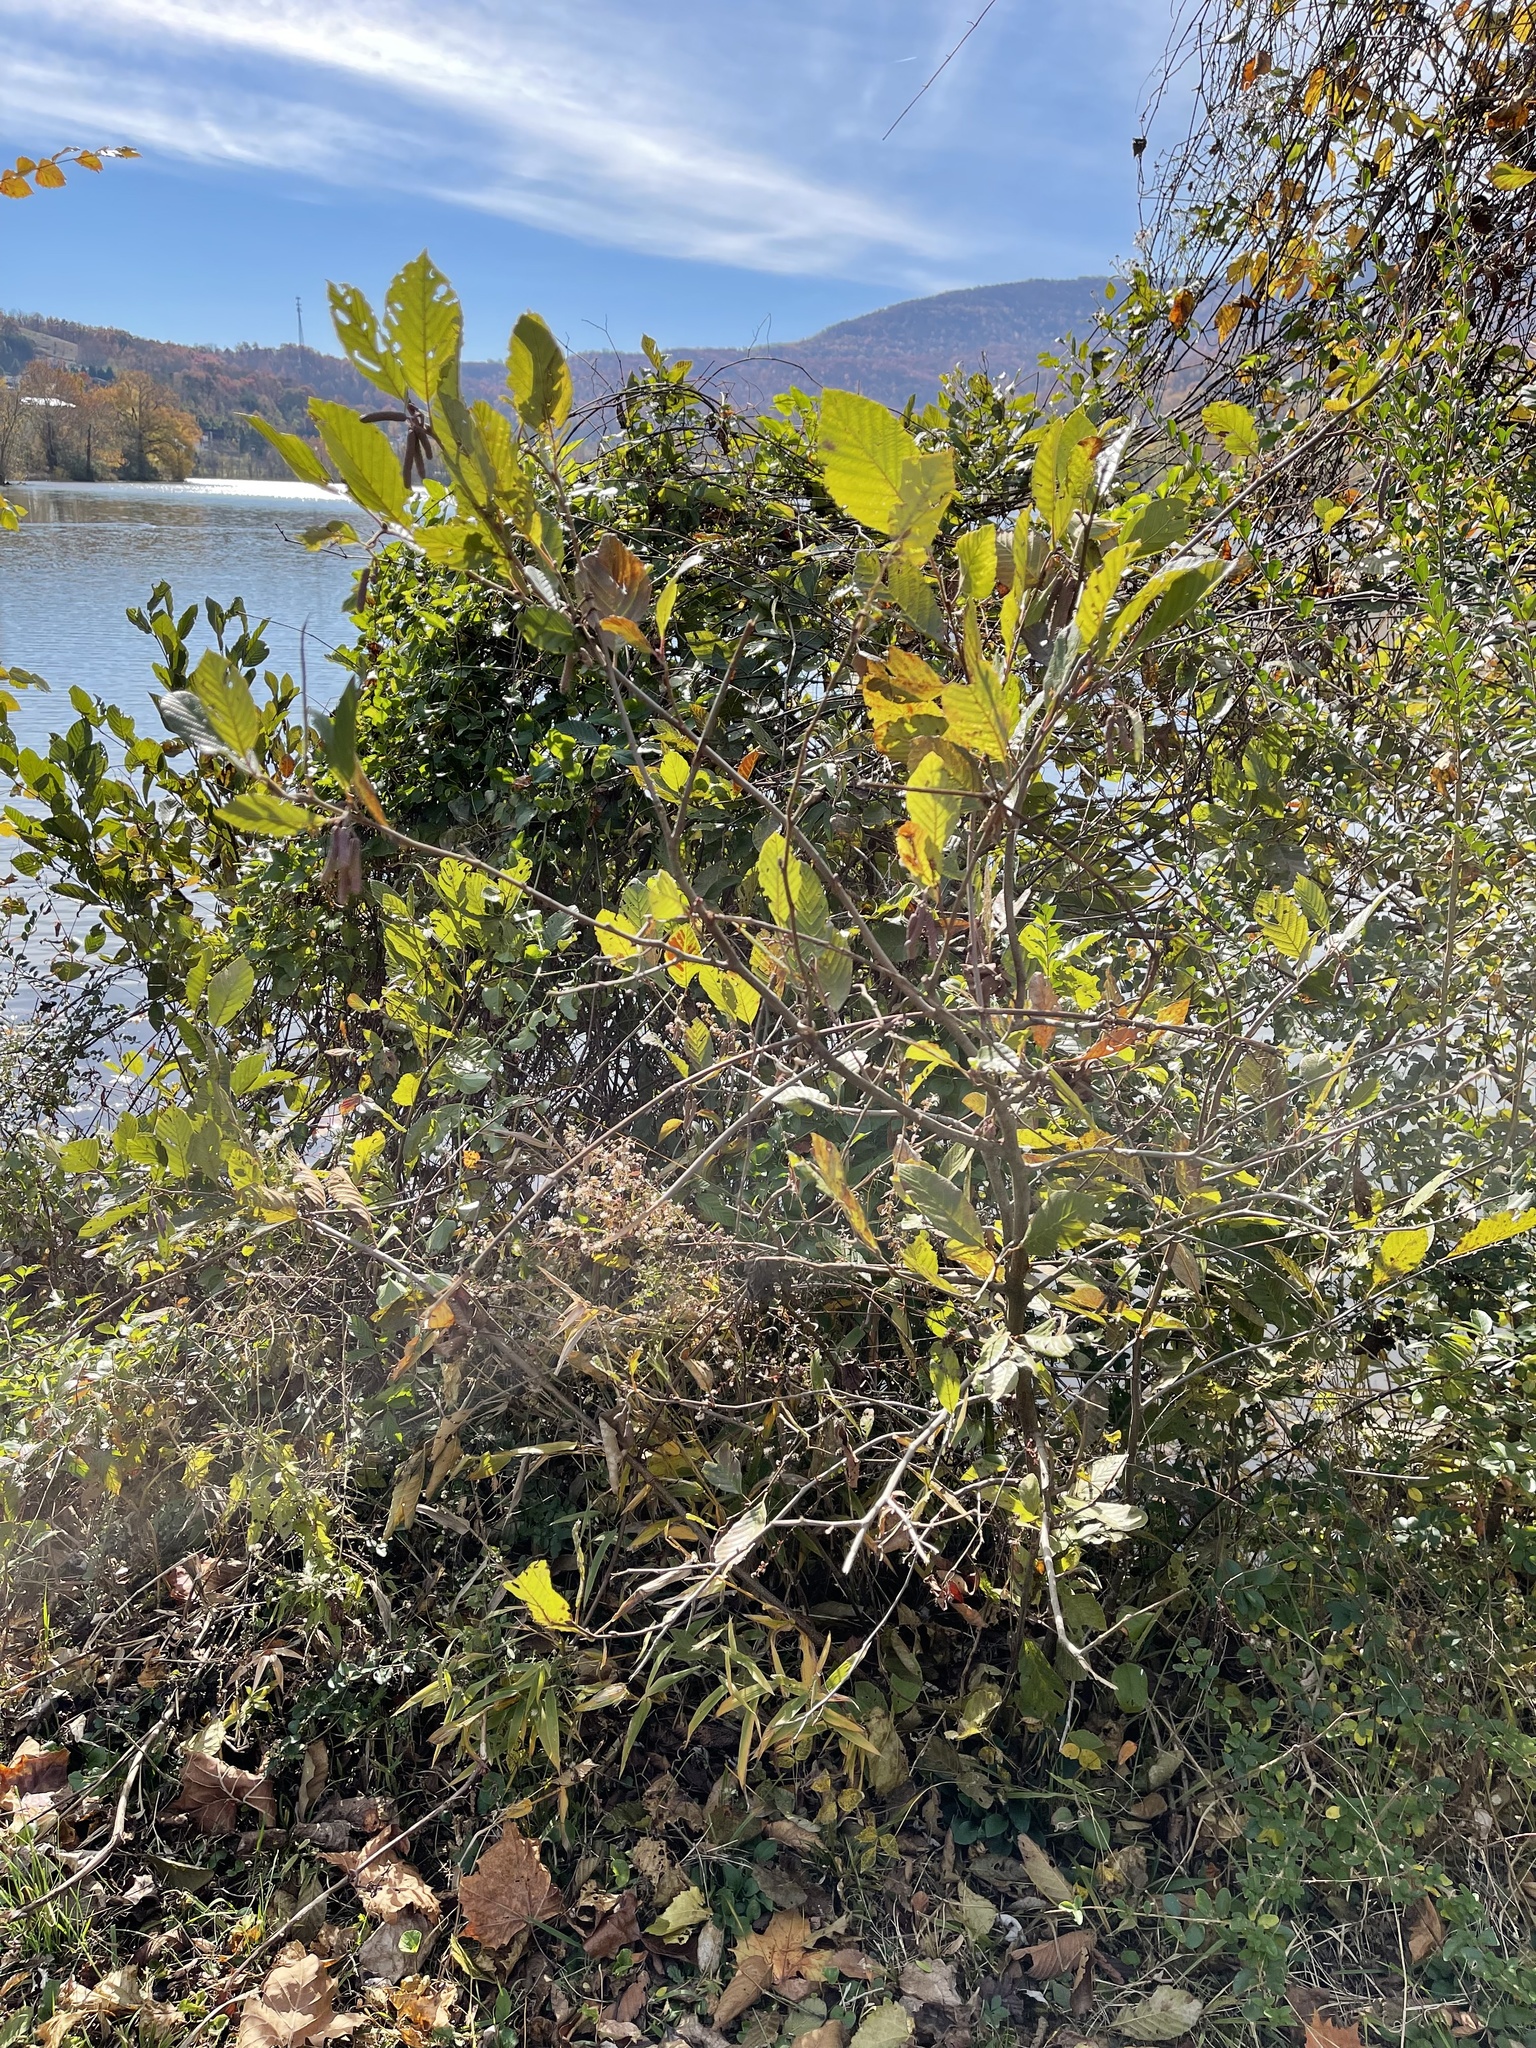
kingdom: Plantae
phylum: Tracheophyta
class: Magnoliopsida
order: Fagales
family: Betulaceae
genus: Alnus
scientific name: Alnus serrulata
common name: Hazel alder
